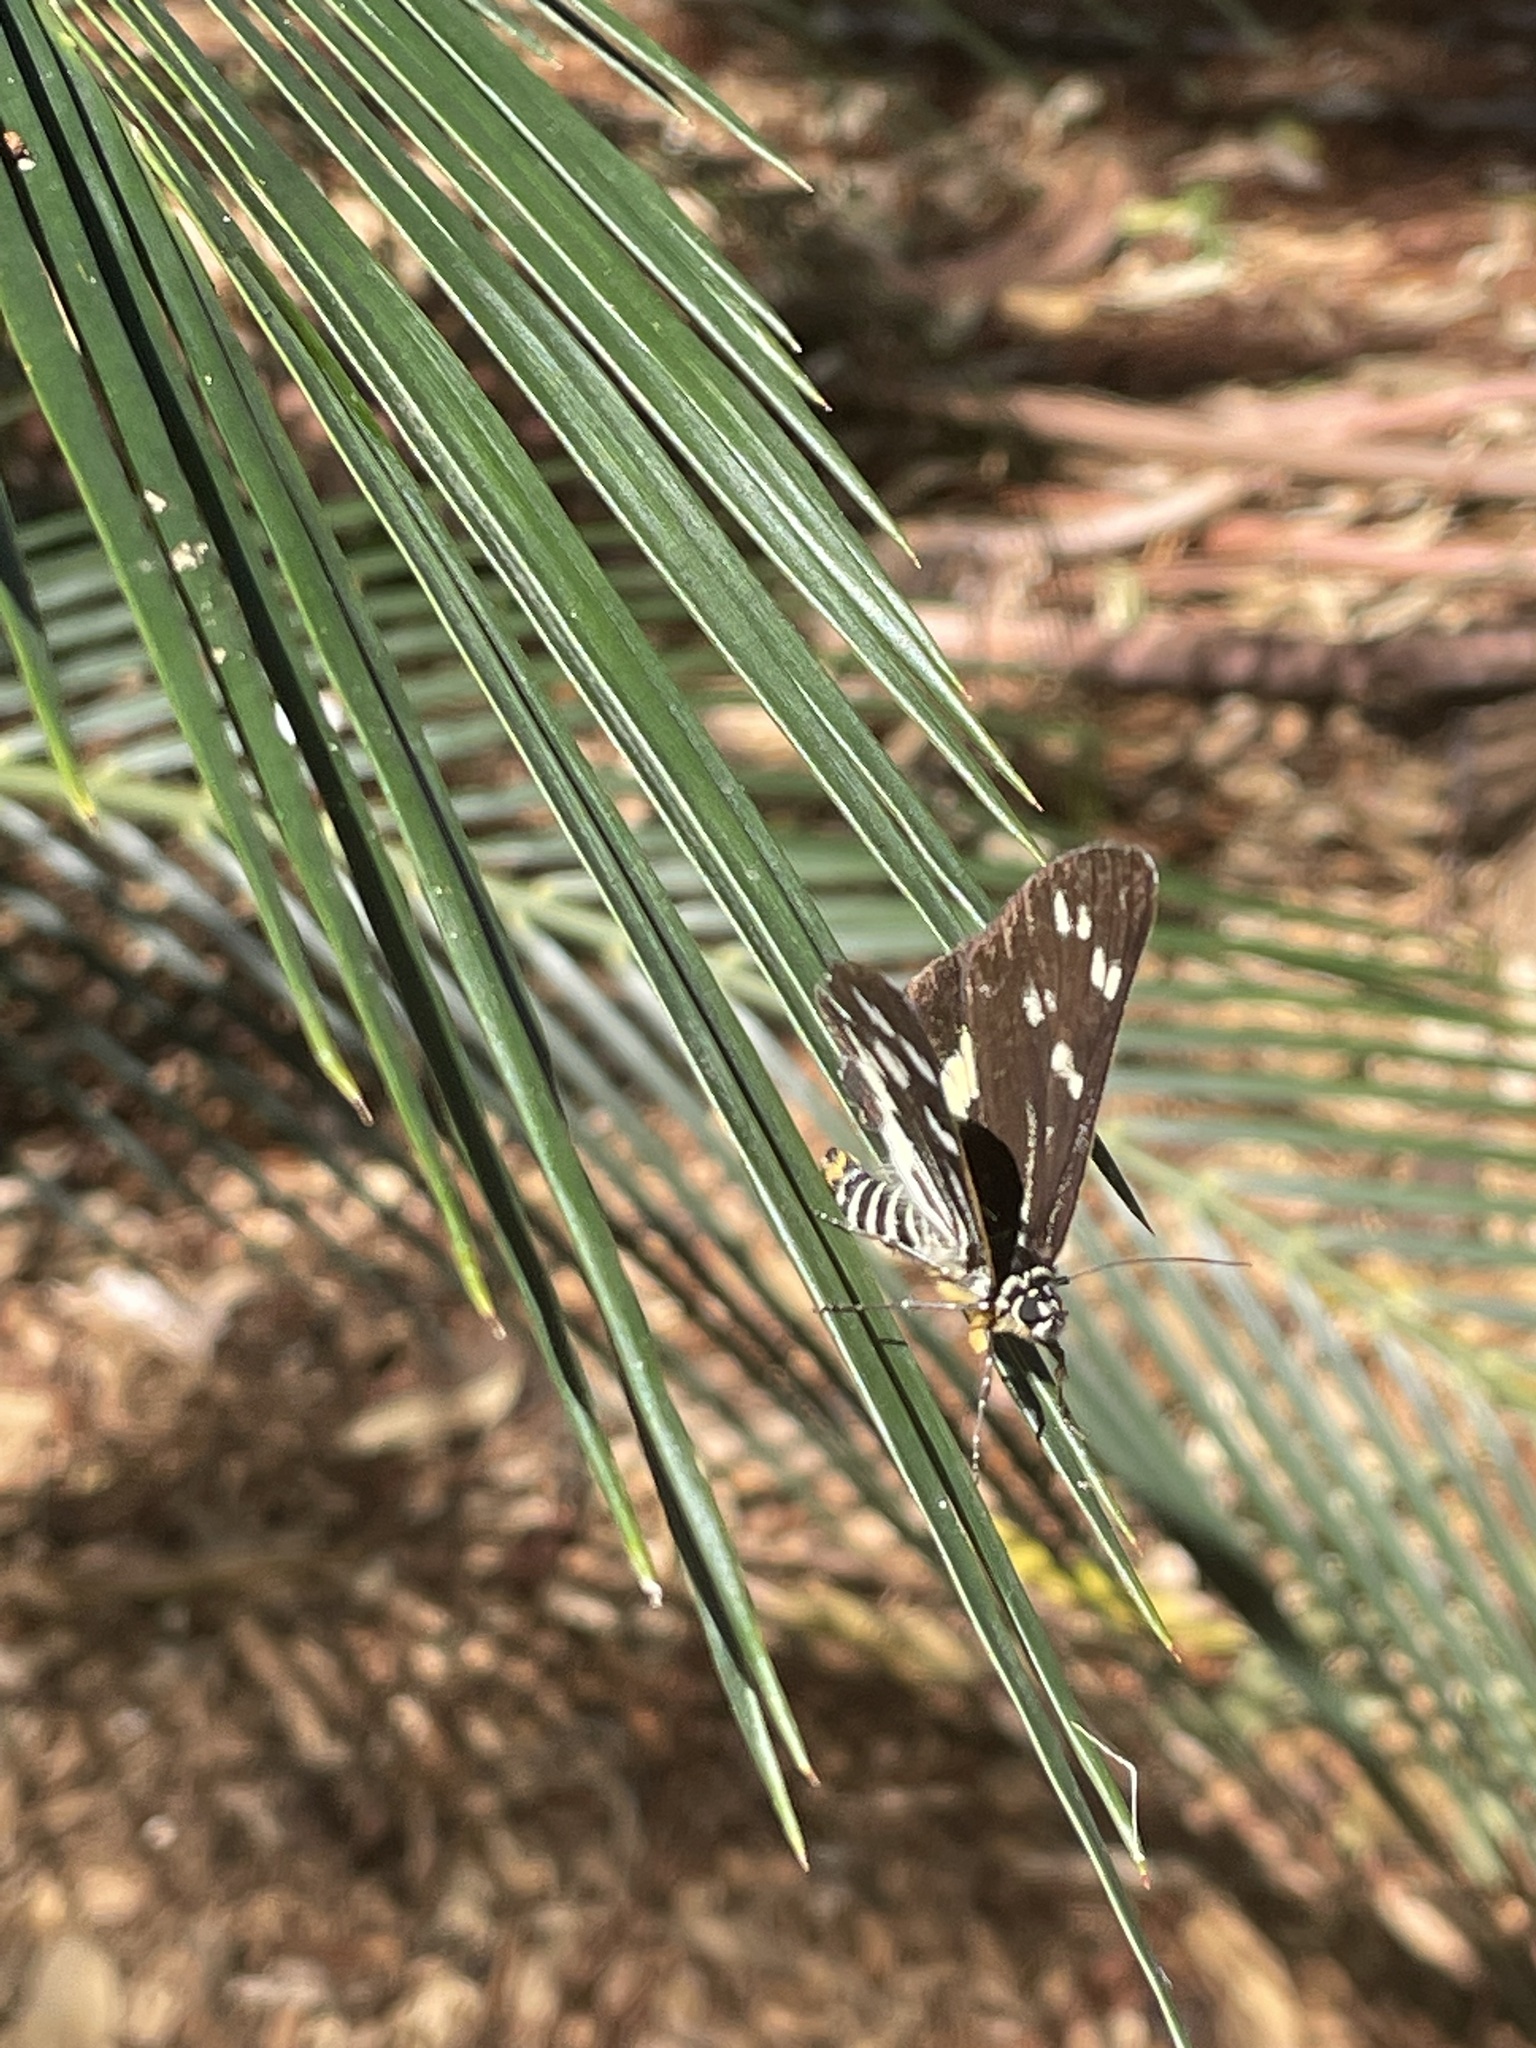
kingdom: Animalia
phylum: Arthropoda
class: Insecta
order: Lepidoptera
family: Noctuidae
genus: Cruria
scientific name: Cruria synopla
